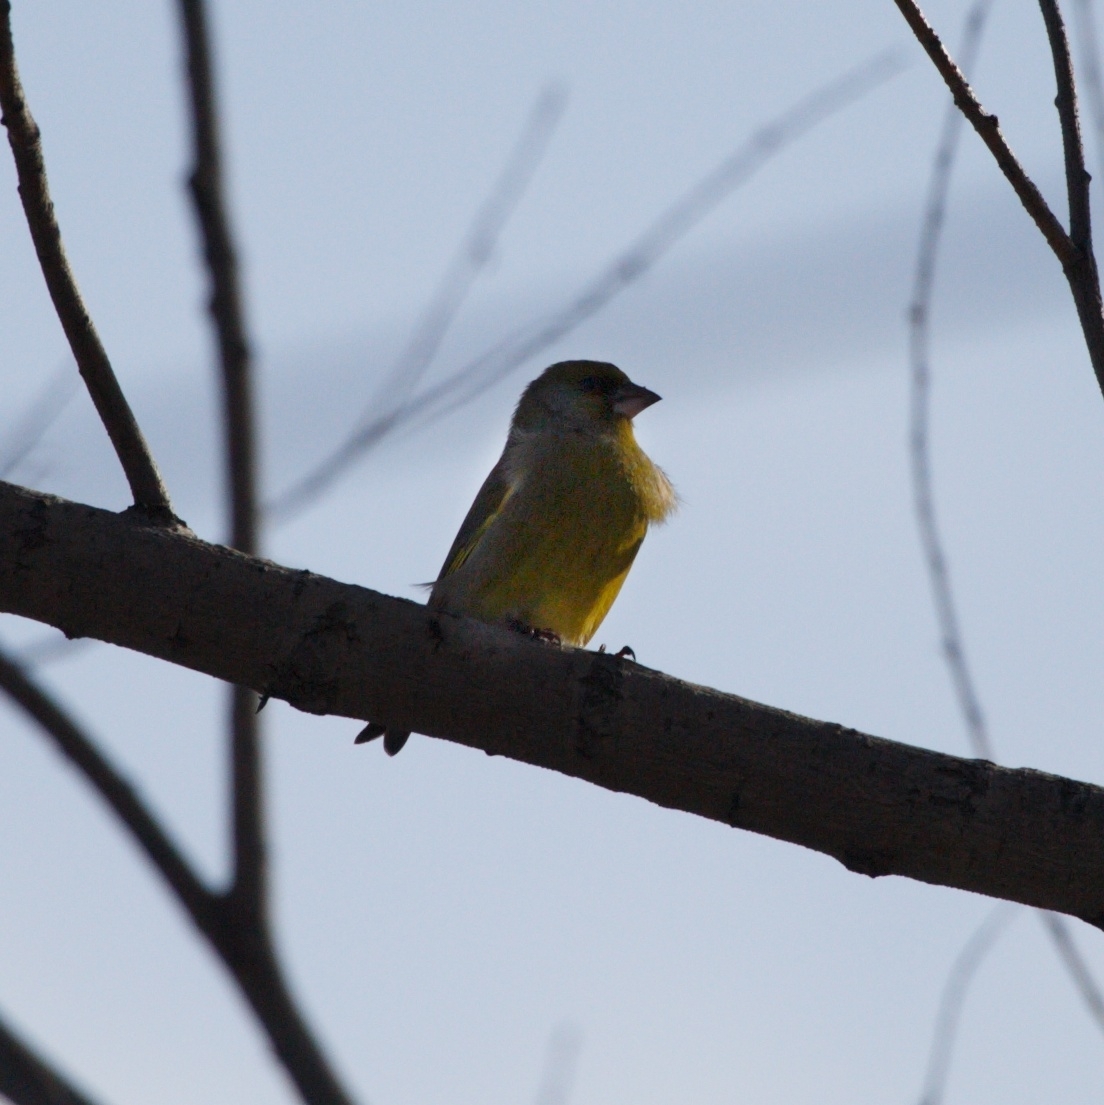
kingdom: Plantae
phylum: Tracheophyta
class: Liliopsida
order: Poales
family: Poaceae
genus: Chloris
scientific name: Chloris chloris
